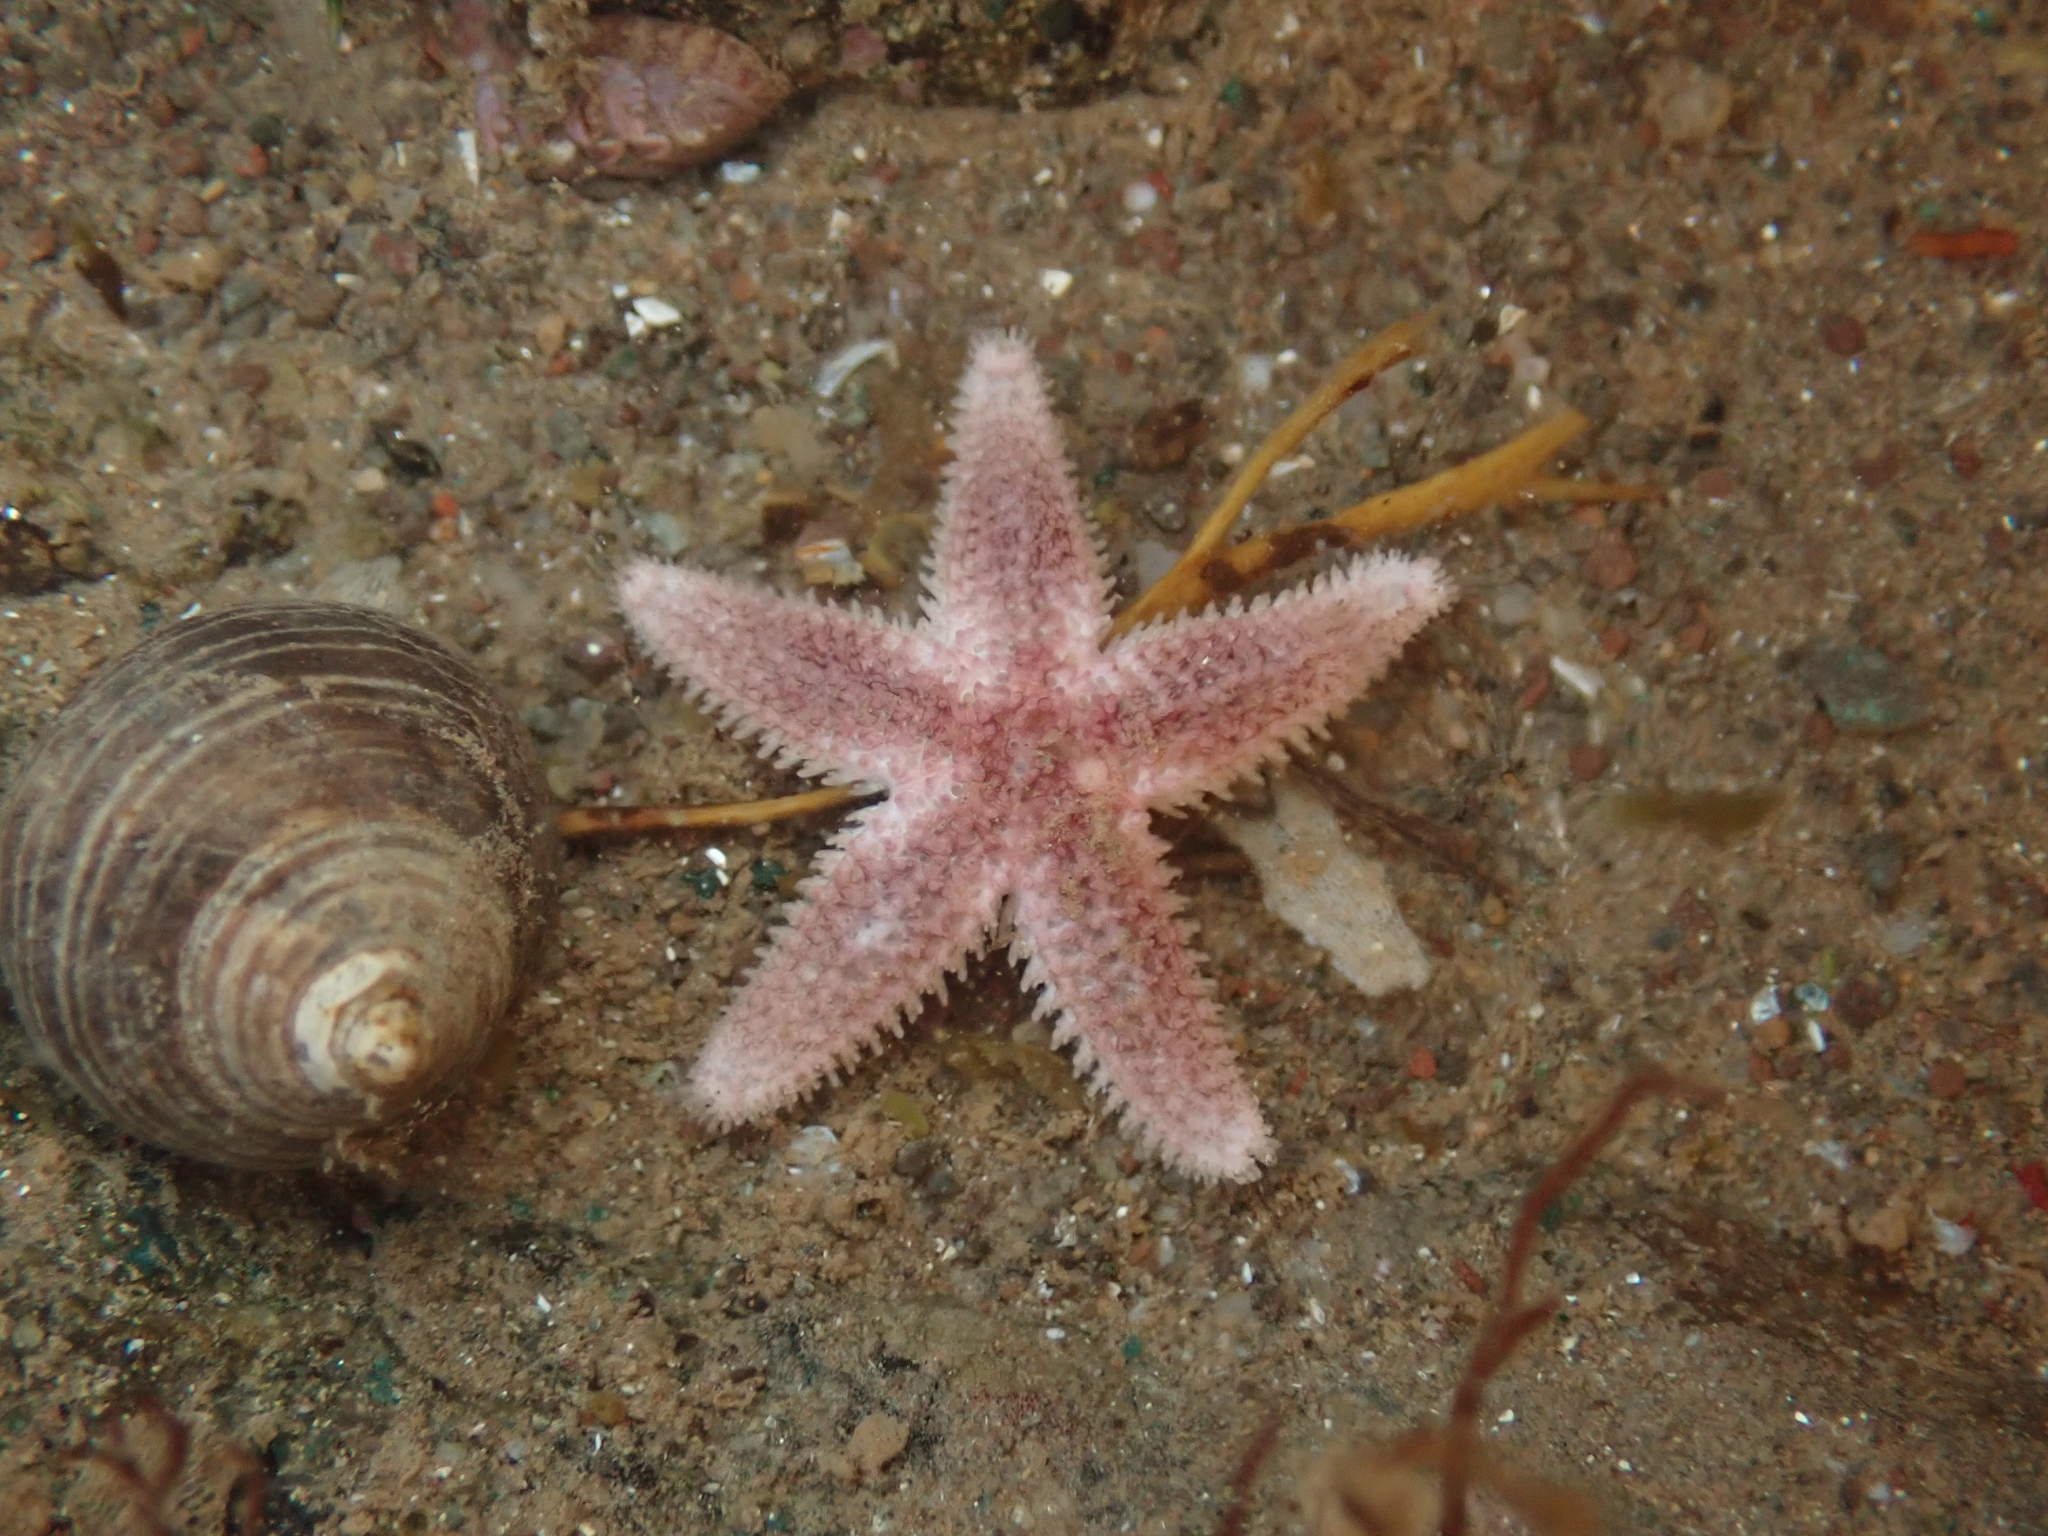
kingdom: Animalia
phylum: Echinodermata
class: Asteroidea
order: Forcipulatida
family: Asteriidae
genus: Asterias
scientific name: Asterias rubens
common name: Common starfish
